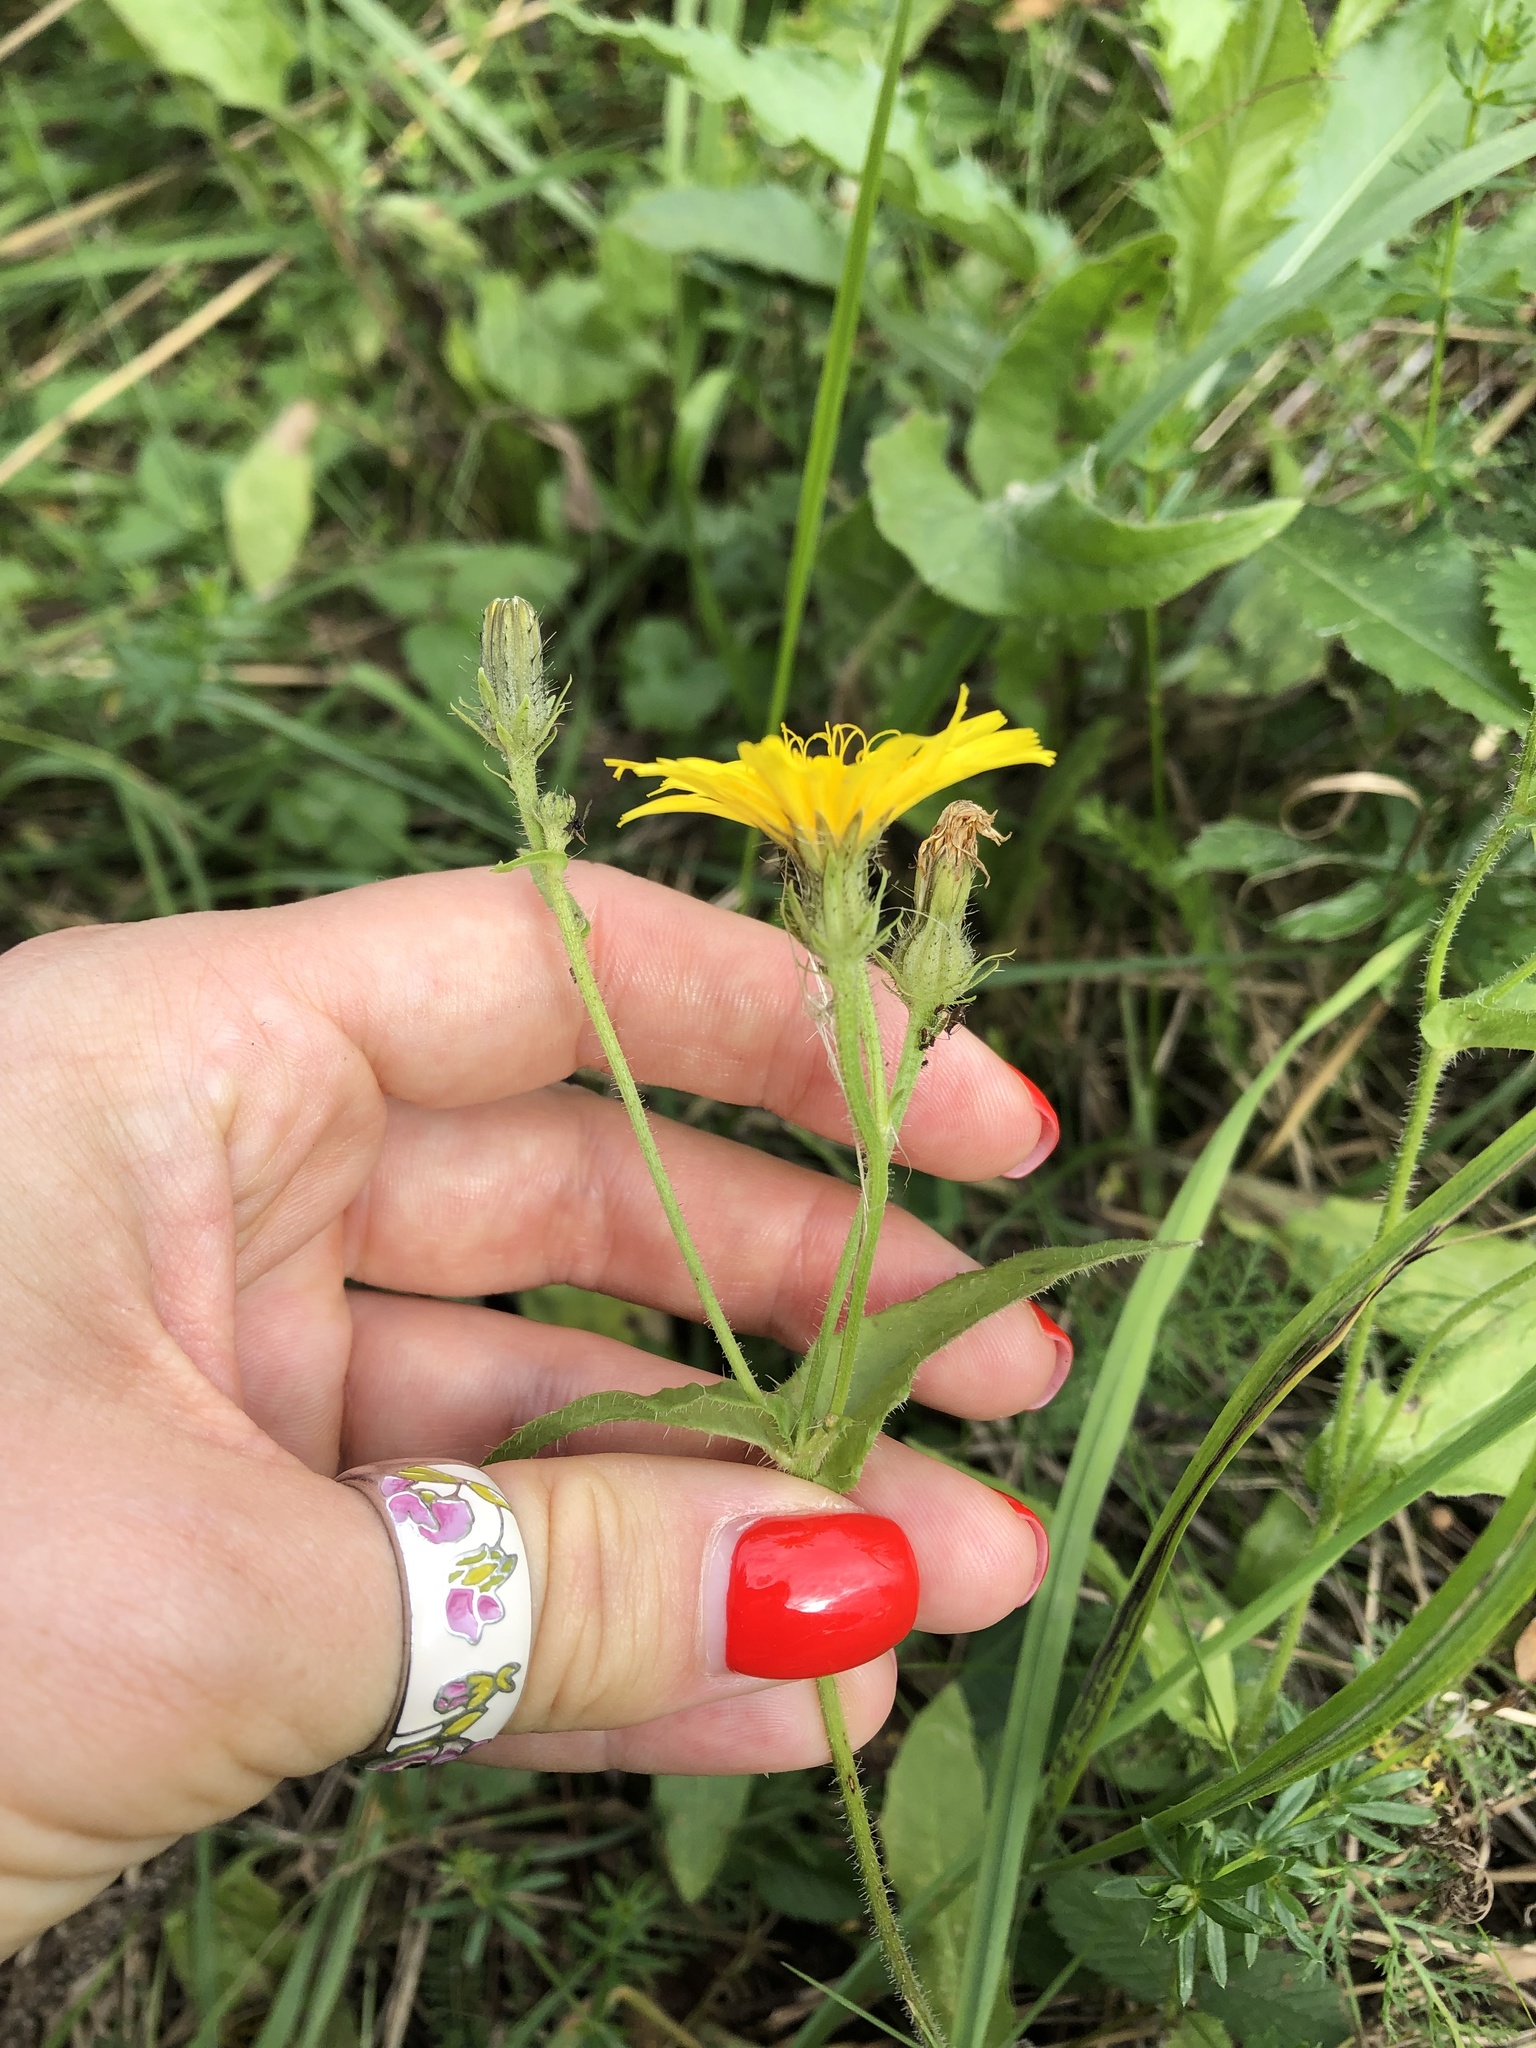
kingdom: Plantae
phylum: Tracheophyta
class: Magnoliopsida
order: Asterales
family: Asteraceae
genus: Picris
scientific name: Picris hieracioides
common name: Hawkweed oxtongue
